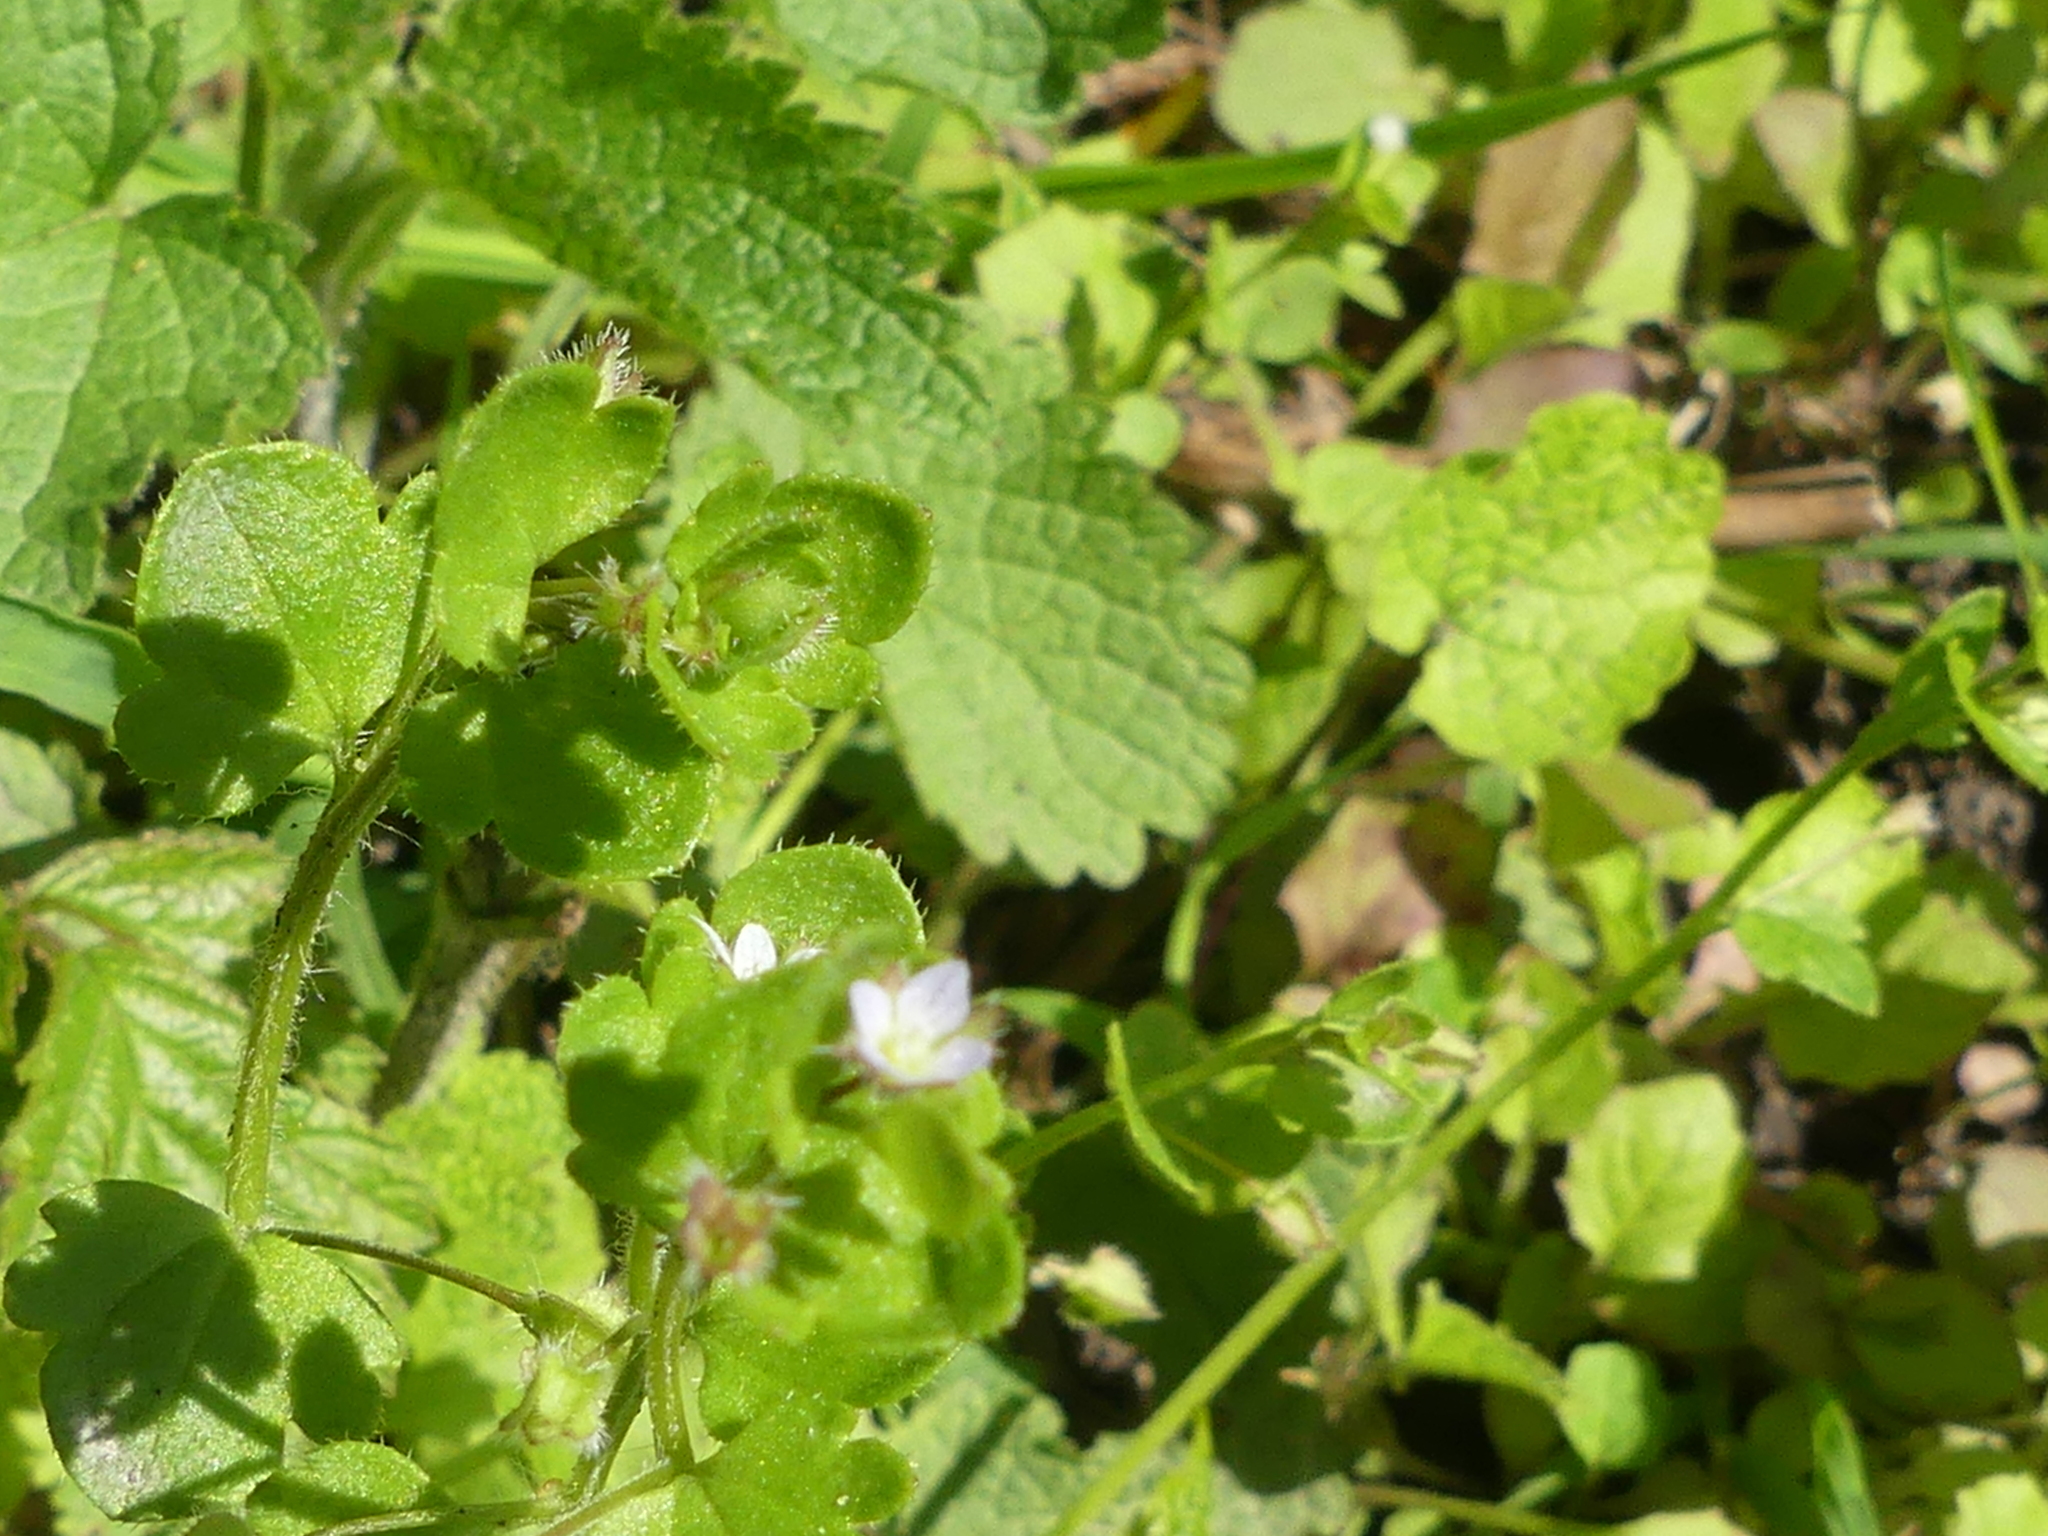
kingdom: Plantae
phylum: Tracheophyta
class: Magnoliopsida
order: Lamiales
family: Plantaginaceae
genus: Veronica
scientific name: Veronica sublobata
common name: False ivy-leaved speedwell
